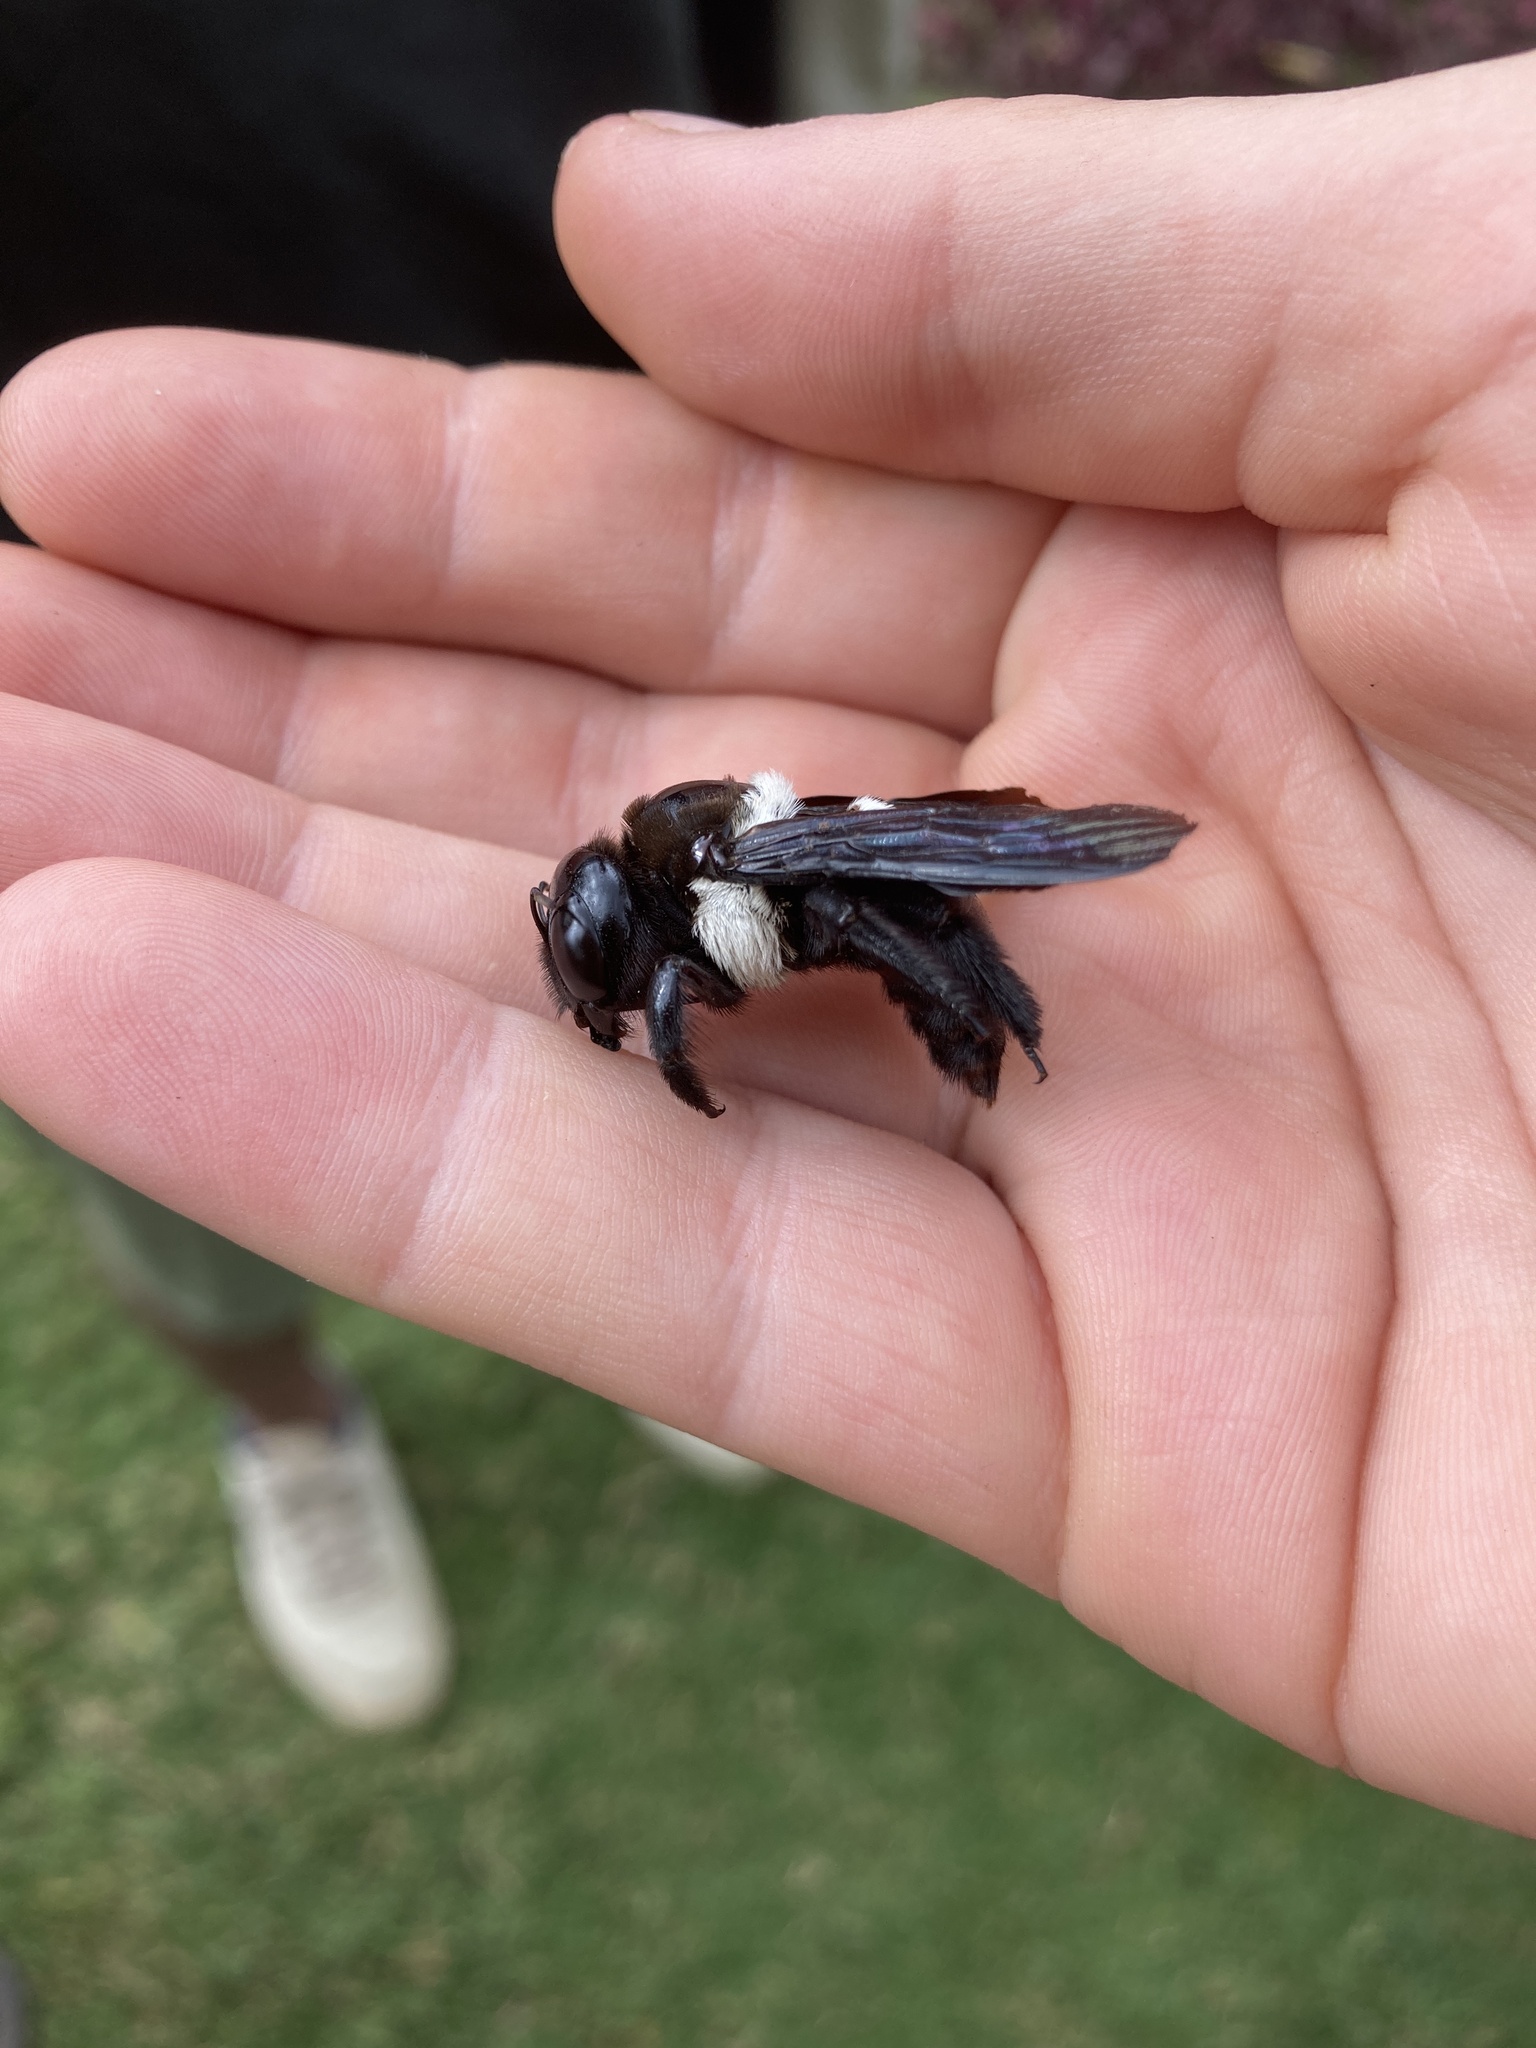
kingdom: Animalia
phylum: Arthropoda
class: Insecta
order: Hymenoptera
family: Apidae
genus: Xylocopa
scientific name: Xylocopa inconstans
